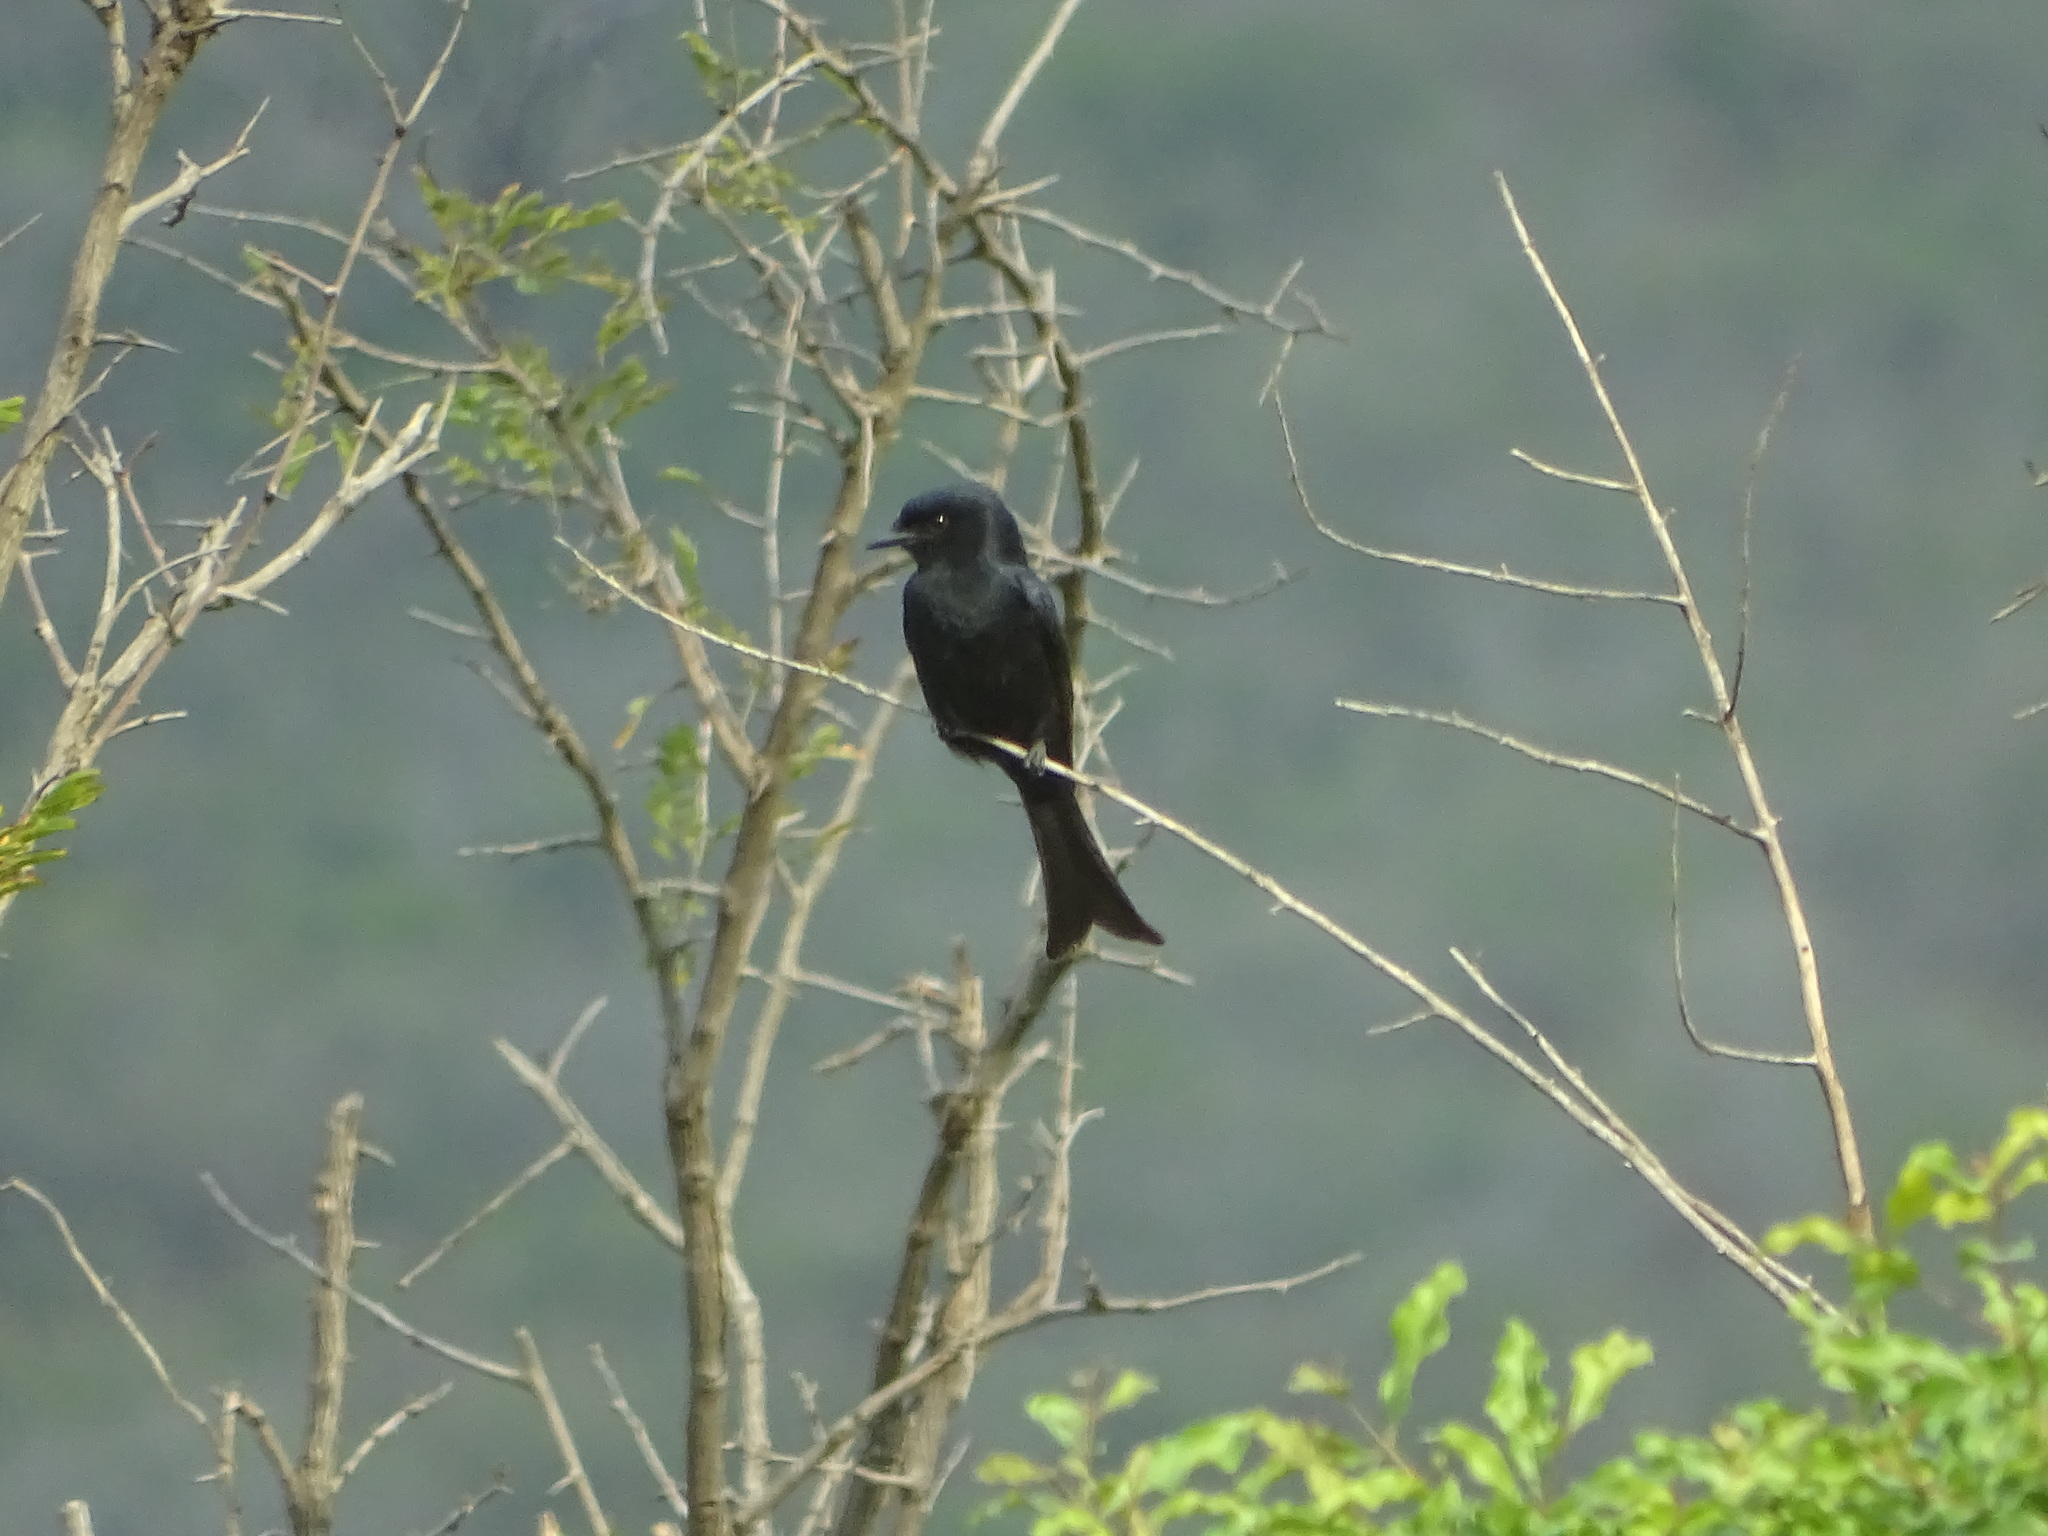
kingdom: Animalia
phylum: Chordata
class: Aves
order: Passeriformes
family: Dicruridae
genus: Dicrurus
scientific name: Dicrurus adsimilis
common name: Fork-tailed drongo
